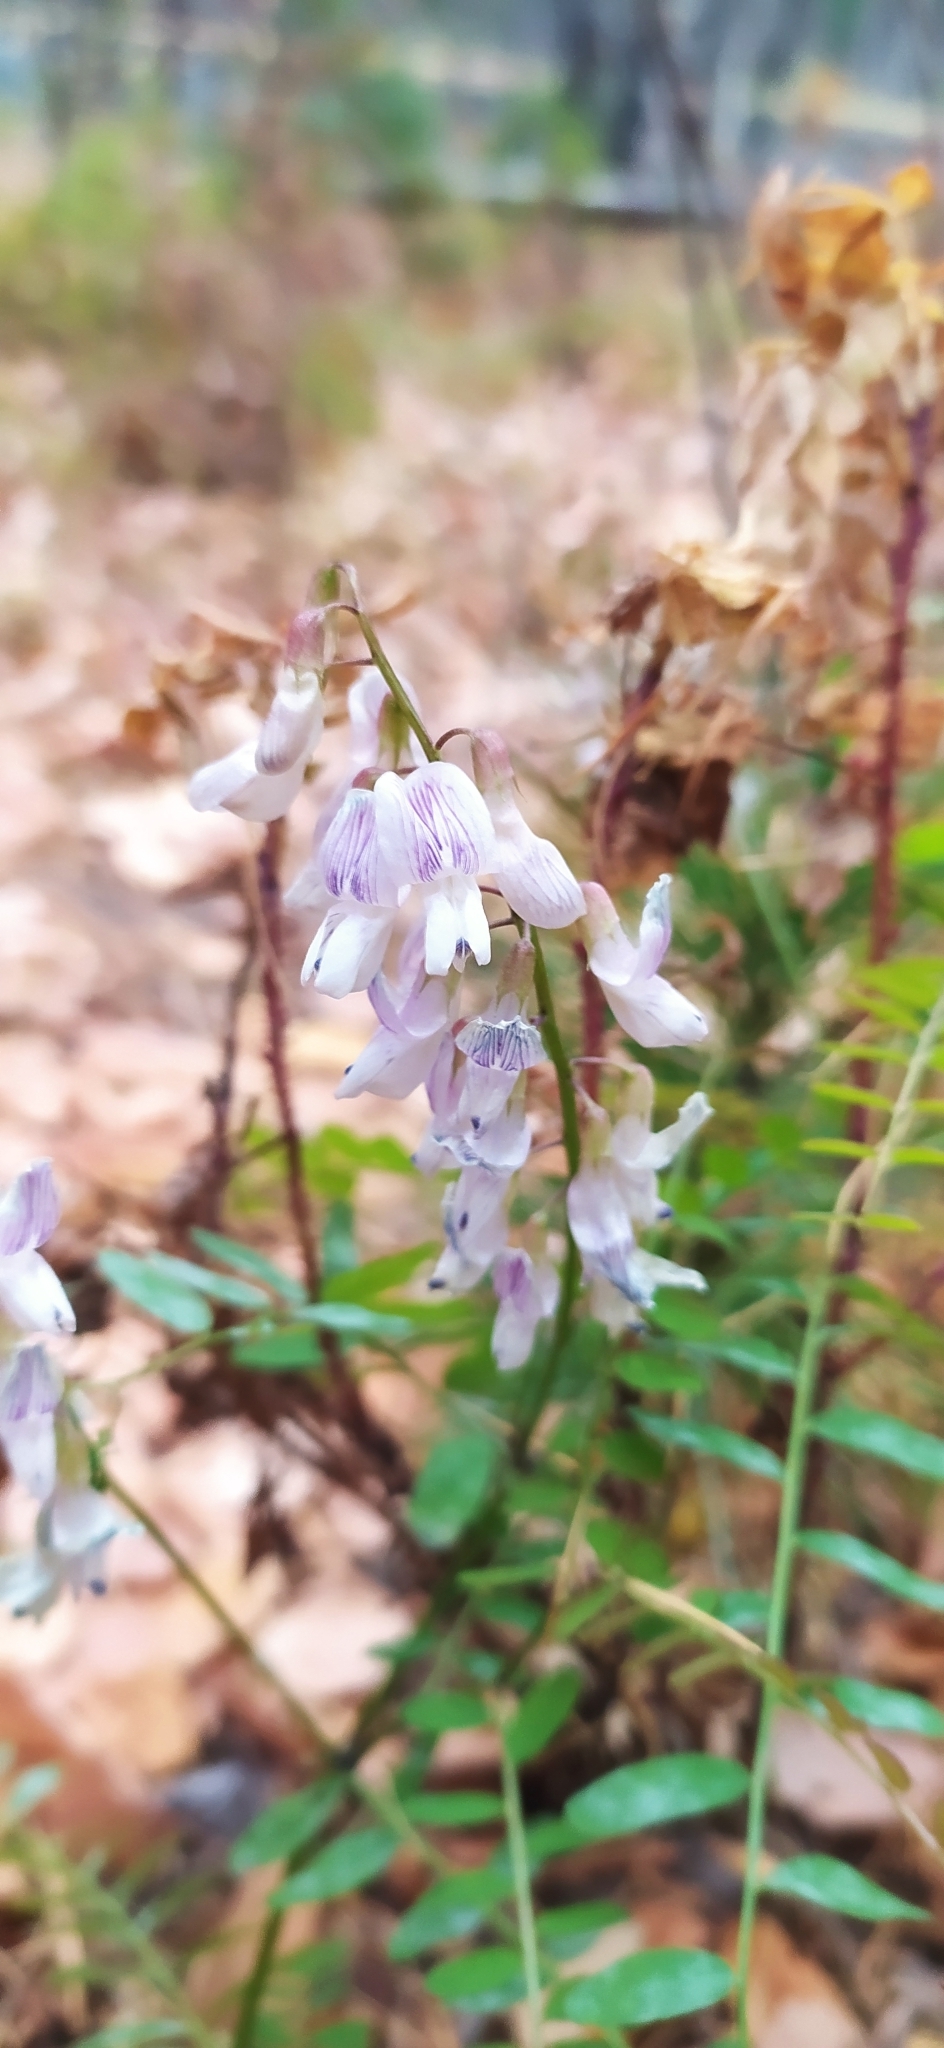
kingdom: Plantae
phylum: Tracheophyta
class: Magnoliopsida
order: Fabales
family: Fabaceae
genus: Vicia
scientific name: Vicia sylvatica
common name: Wood vetch
